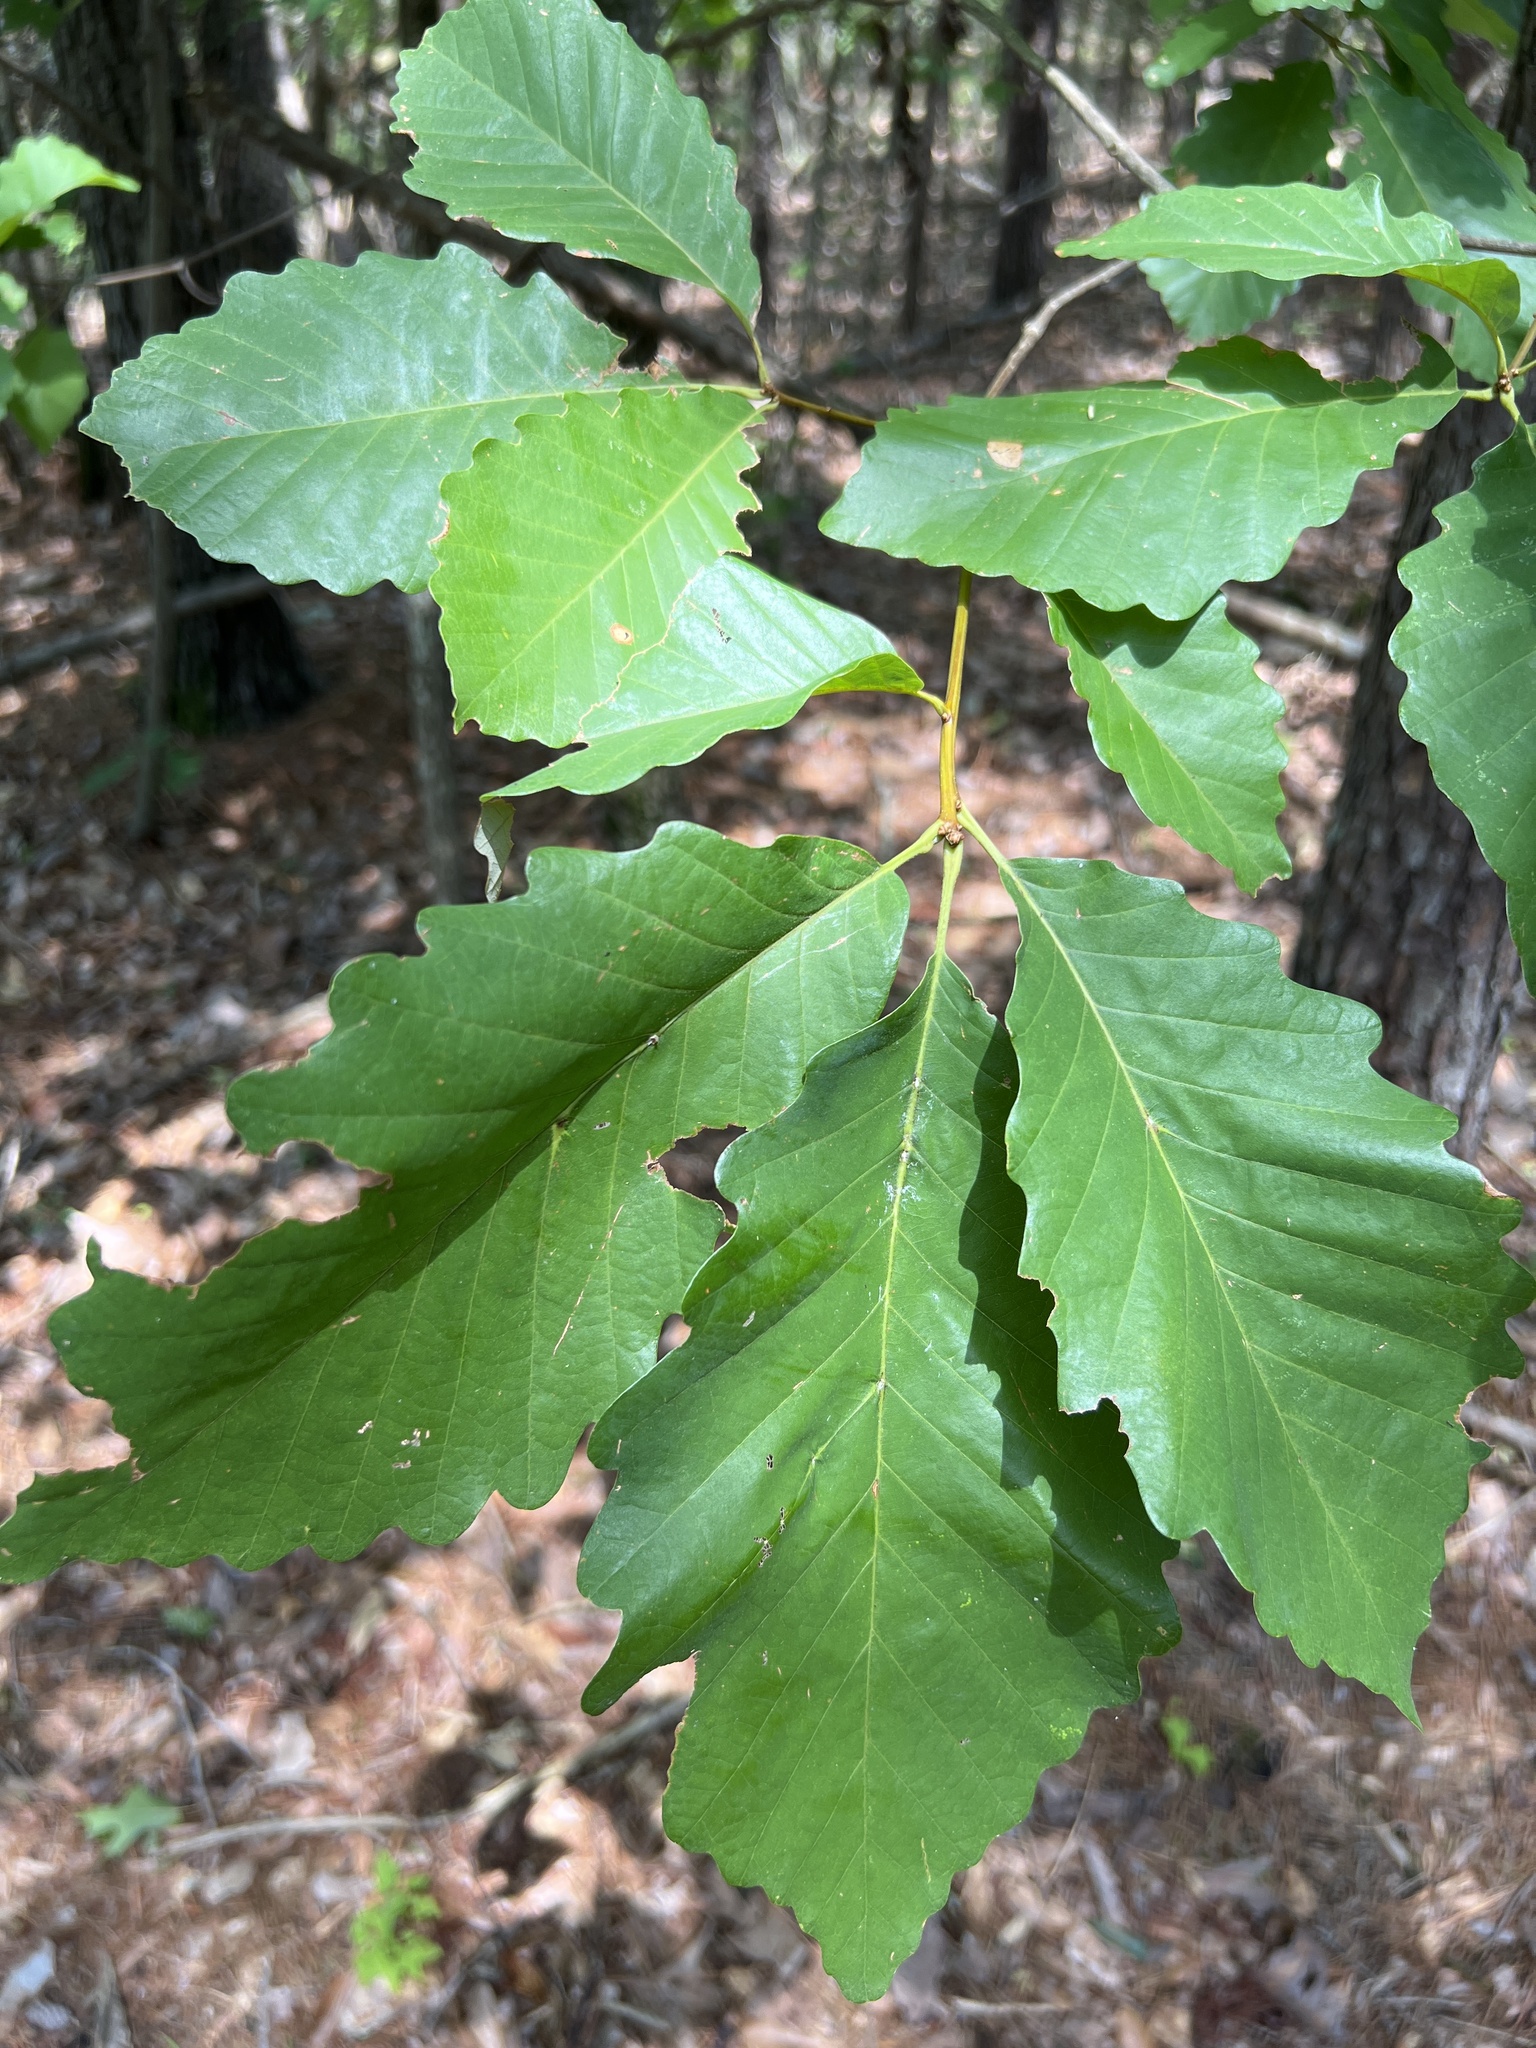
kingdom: Plantae
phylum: Tracheophyta
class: Magnoliopsida
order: Fagales
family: Fagaceae
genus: Quercus
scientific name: Quercus montana
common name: Chestnut oak
